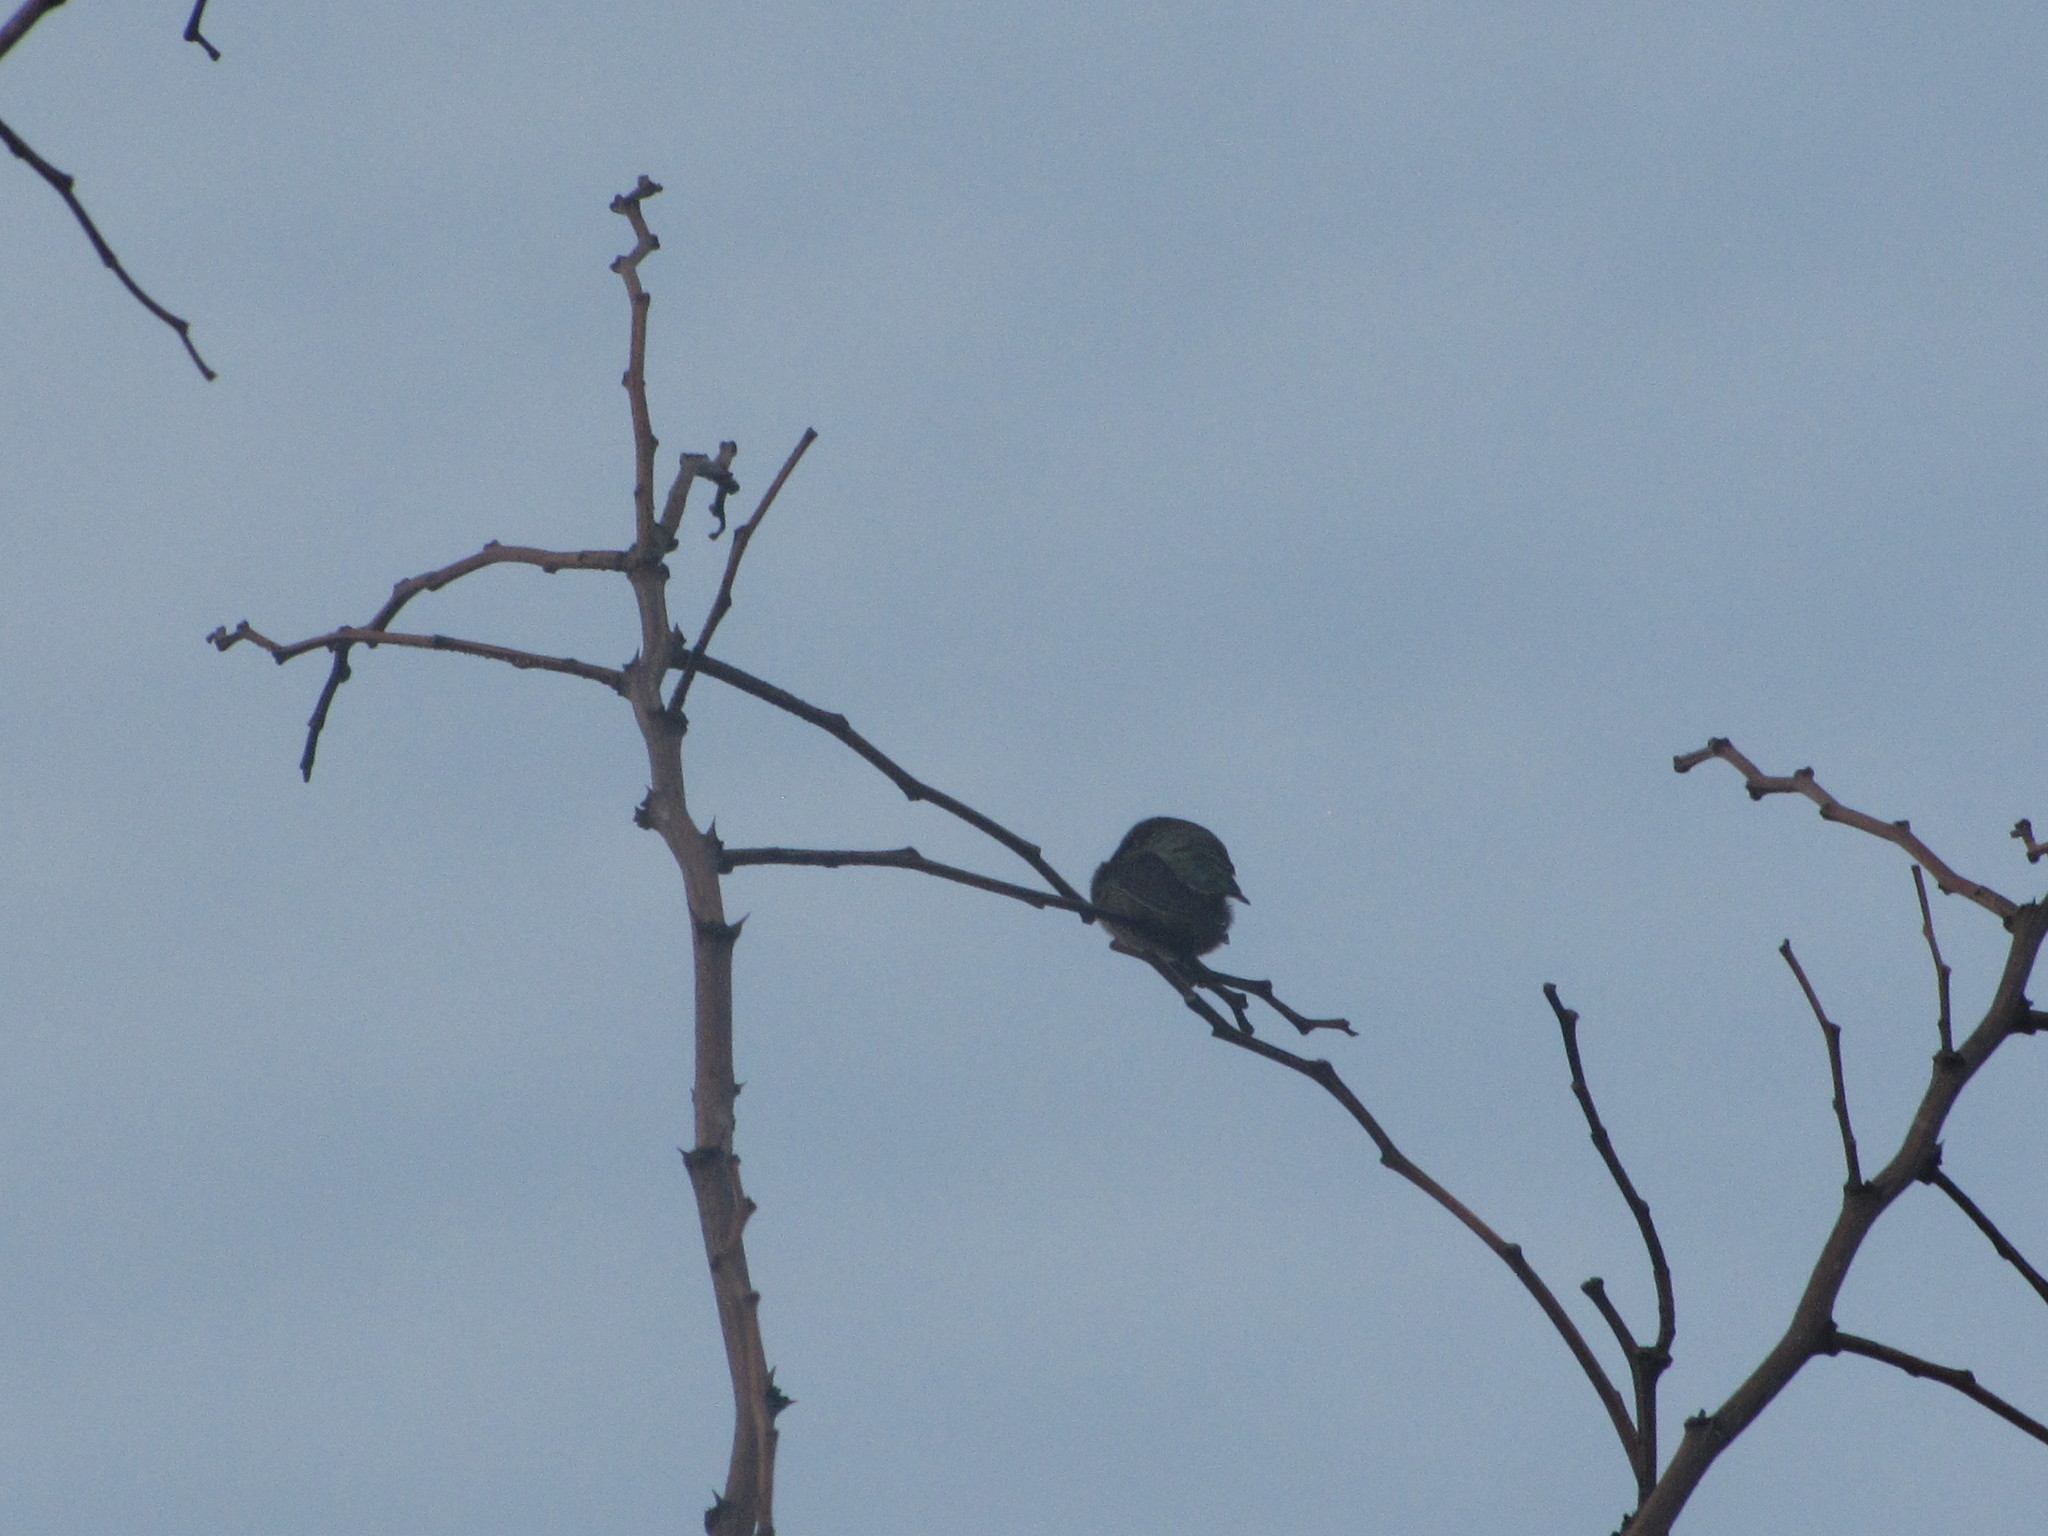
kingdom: Animalia
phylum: Chordata
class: Aves
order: Apodiformes
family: Trochilidae
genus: Calypte
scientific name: Calypte anna
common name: Anna's hummingbird
